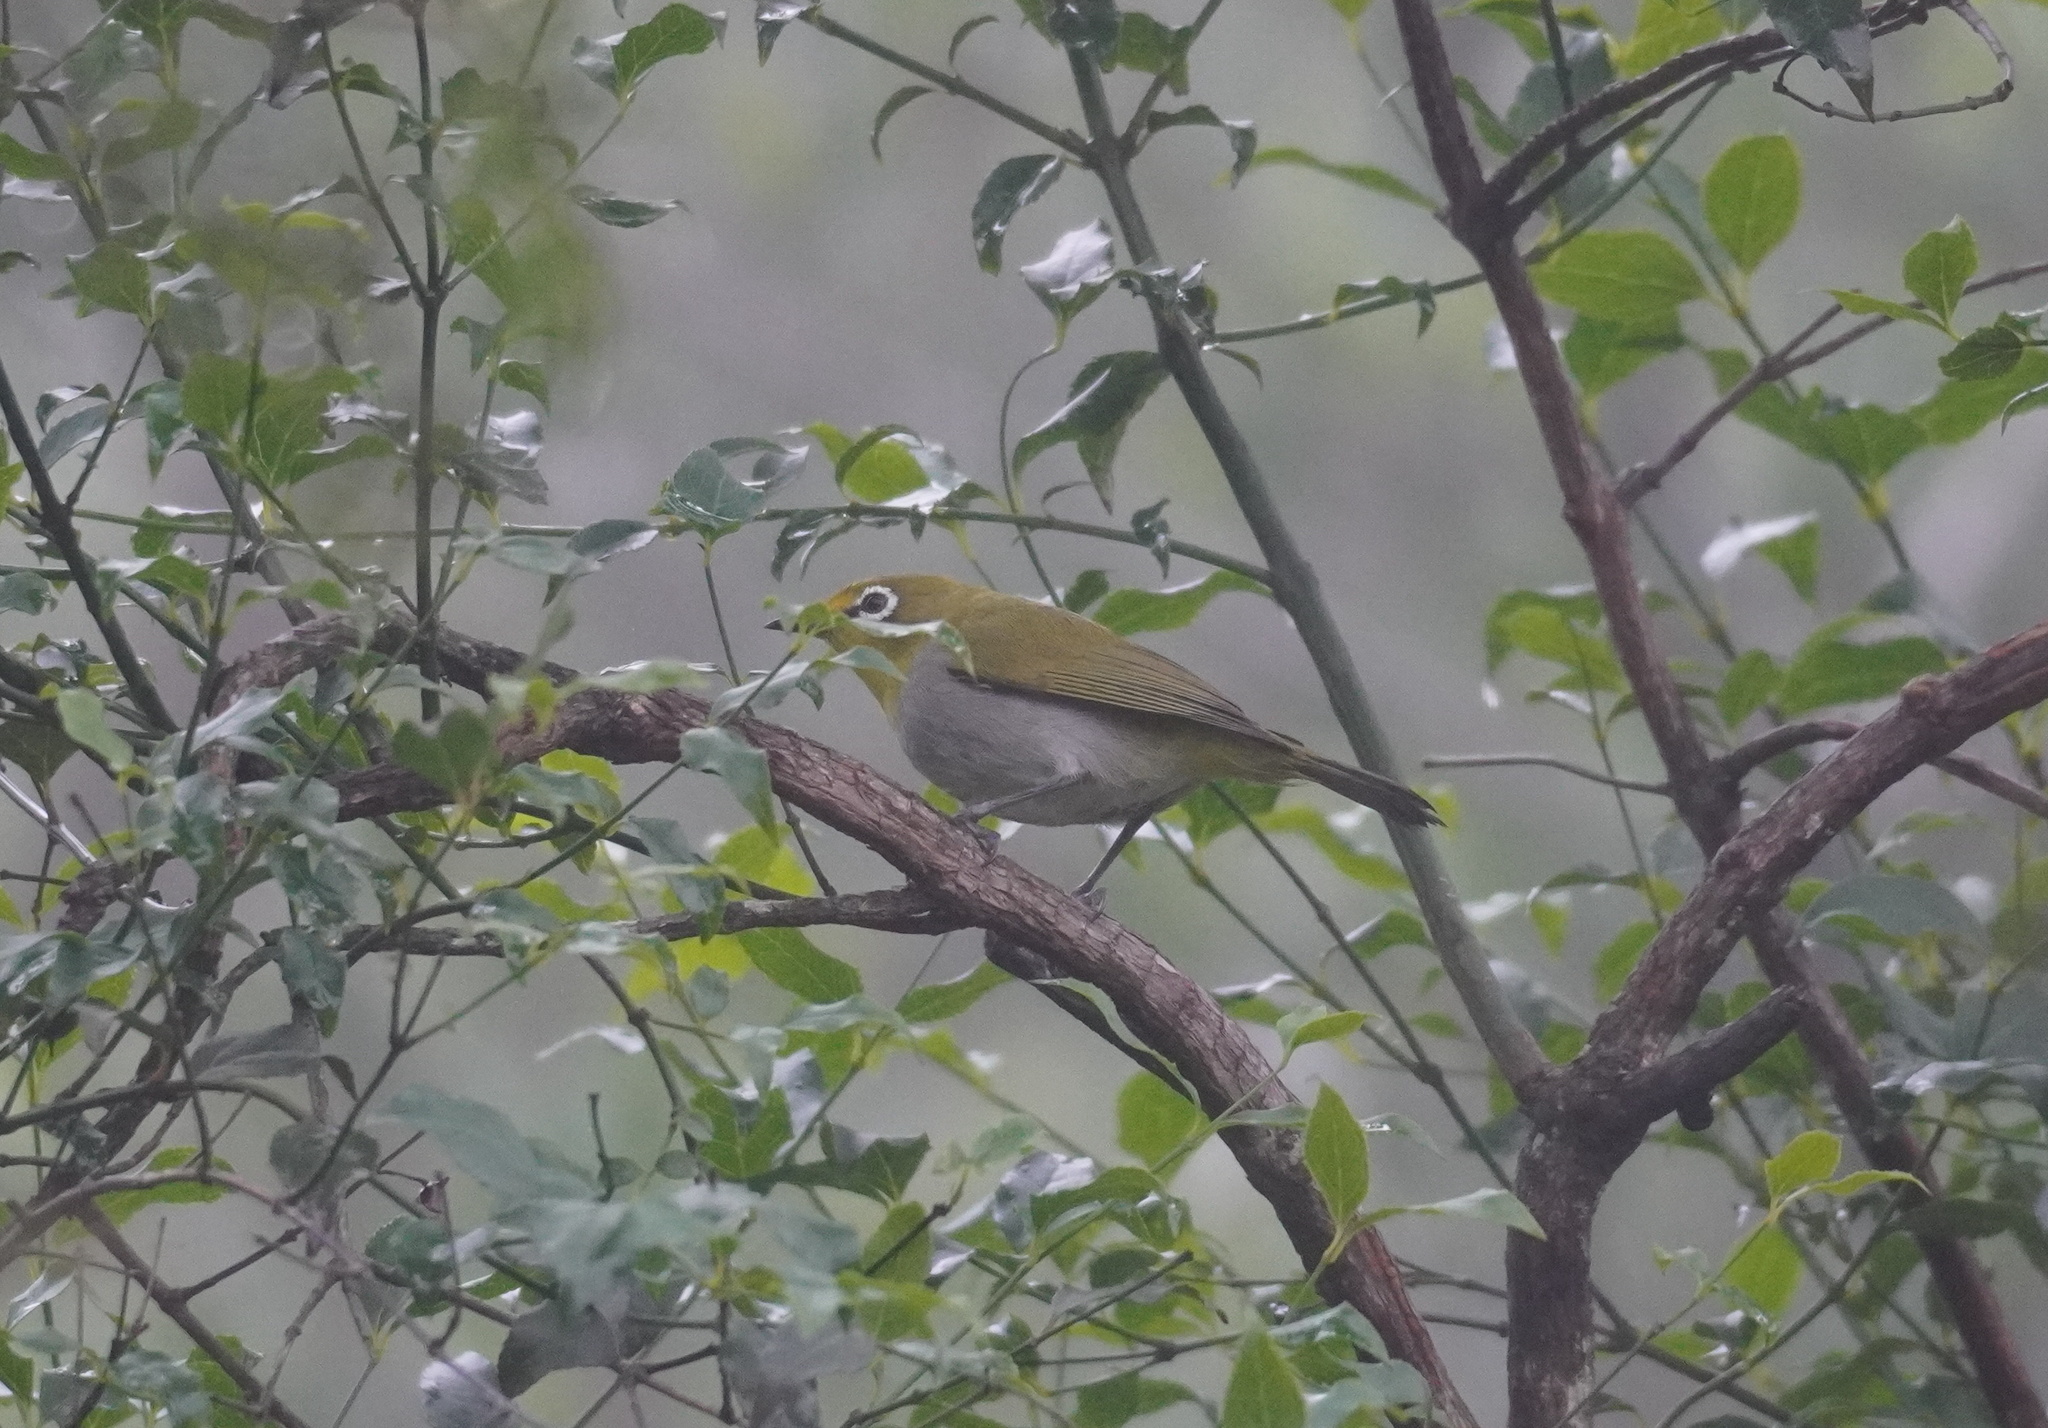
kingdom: Animalia
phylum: Chordata
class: Aves
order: Passeriformes
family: Zosteropidae
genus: Zosterops
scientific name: Zosterops virens
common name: Cape white-eye
